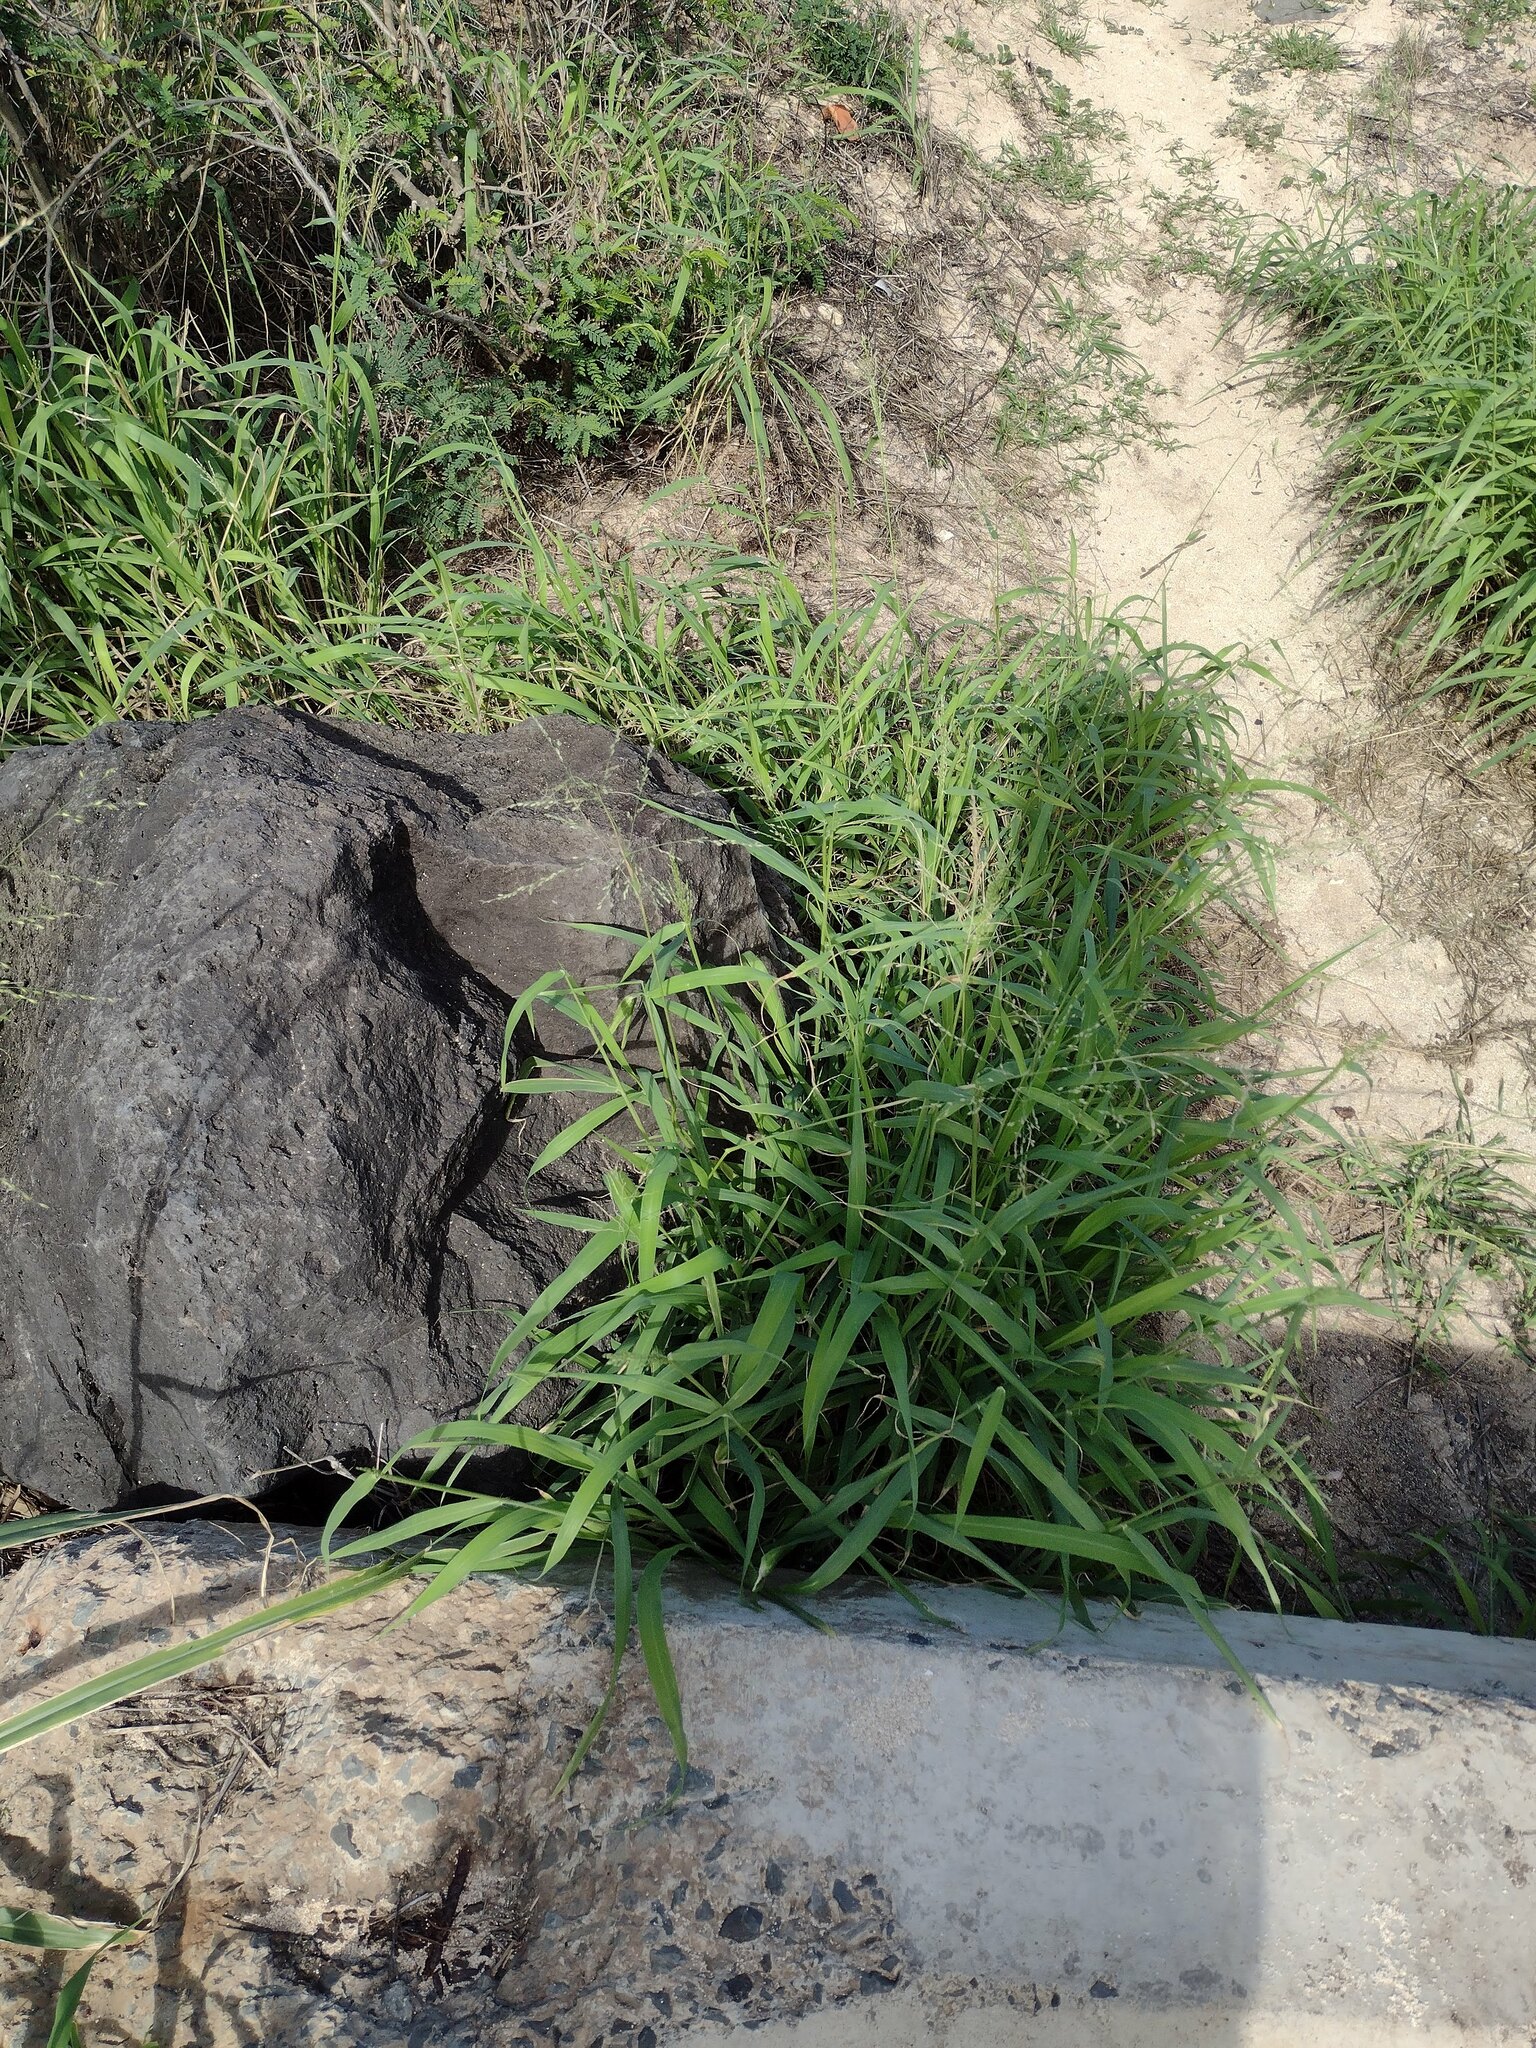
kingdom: Plantae
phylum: Tracheophyta
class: Liliopsida
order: Poales
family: Poaceae
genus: Megathyrsus
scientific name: Megathyrsus maximus
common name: Guineagrass
